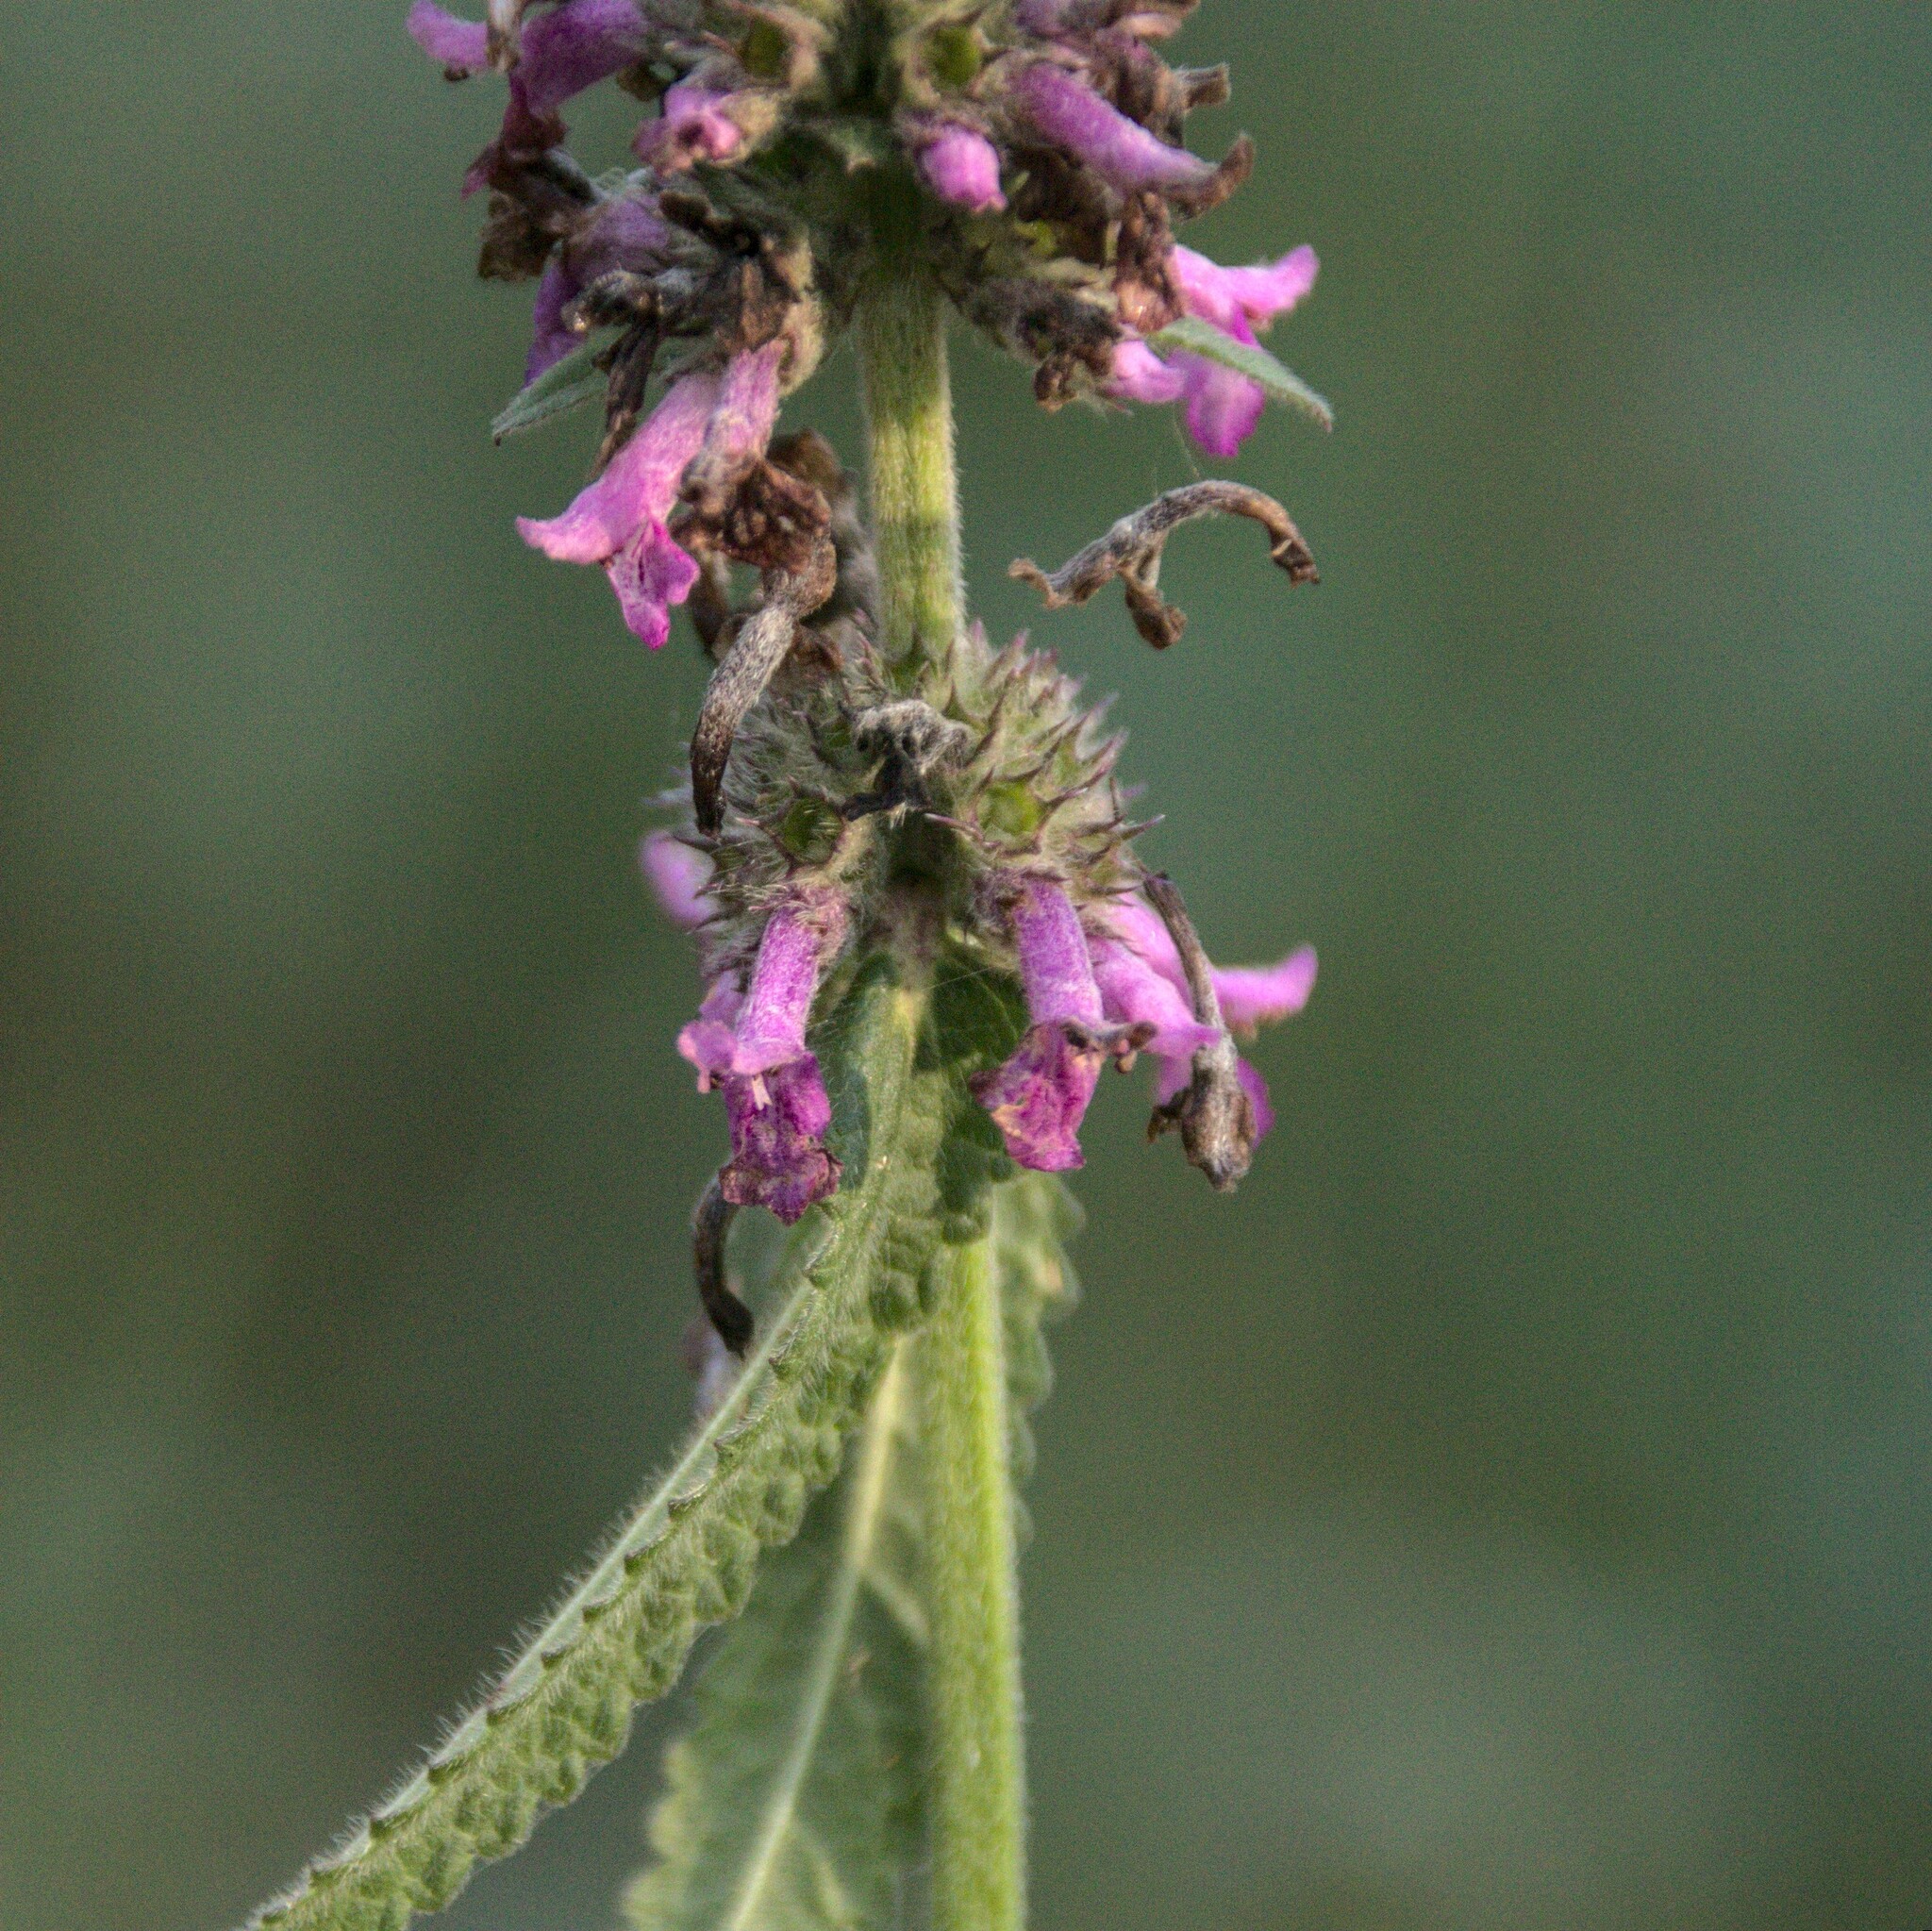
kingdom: Plantae
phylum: Tracheophyta
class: Magnoliopsida
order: Lamiales
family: Lamiaceae
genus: Betonica
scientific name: Betonica officinalis
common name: Bishop's-wort
